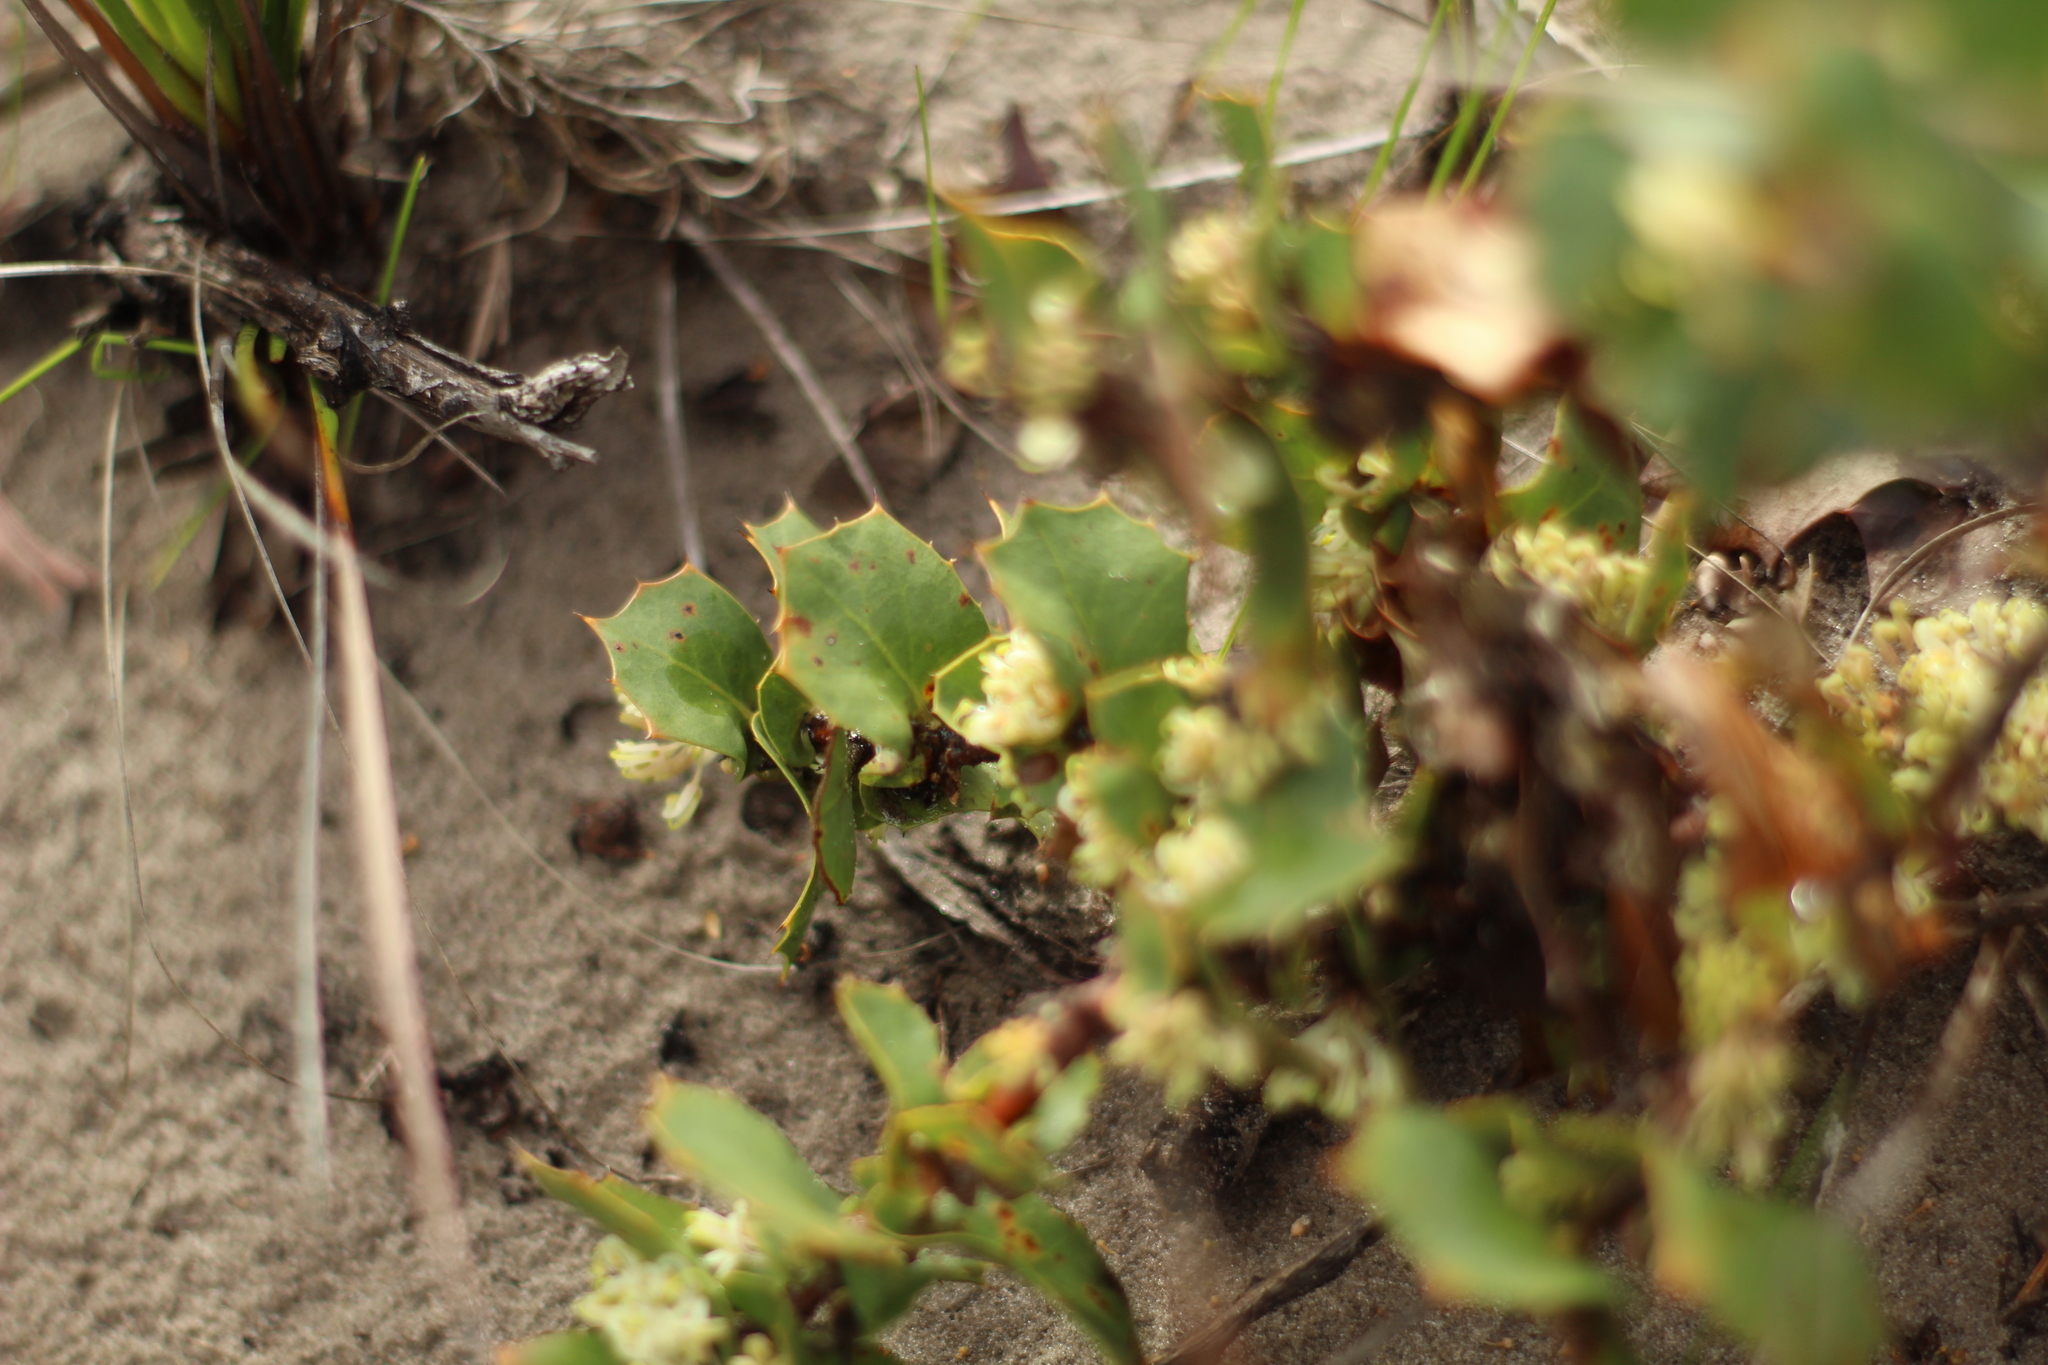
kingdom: Plantae
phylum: Tracheophyta
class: Magnoliopsida
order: Proteales
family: Proteaceae
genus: Hakea
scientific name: Hakea prostrata
